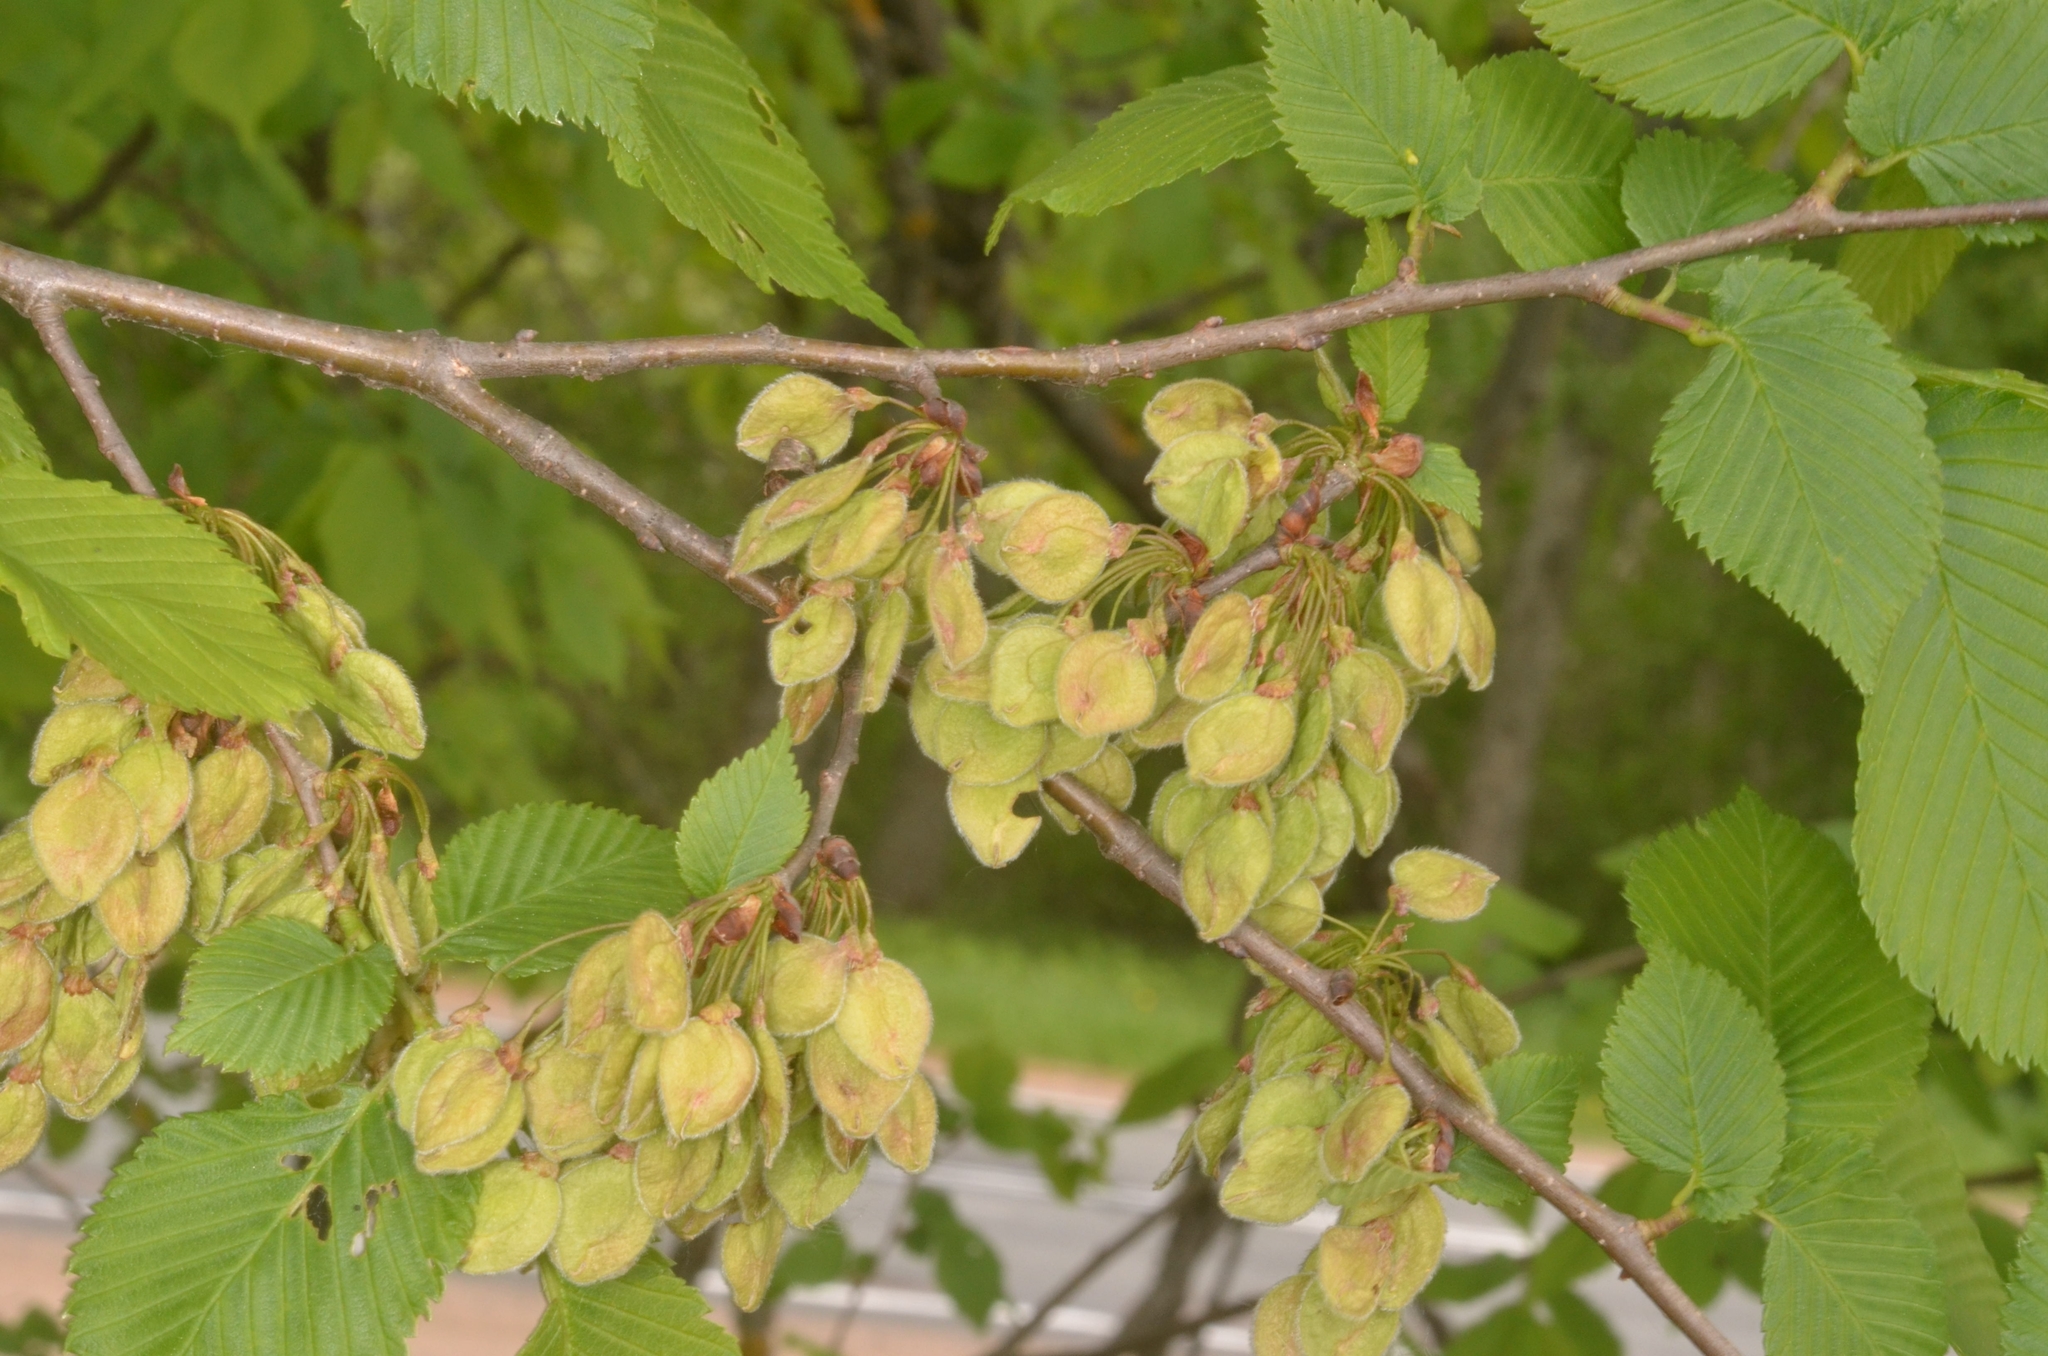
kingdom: Plantae
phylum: Tracheophyta
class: Magnoliopsida
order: Rosales
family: Ulmaceae
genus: Ulmus
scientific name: Ulmus laevis
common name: European white-elm
